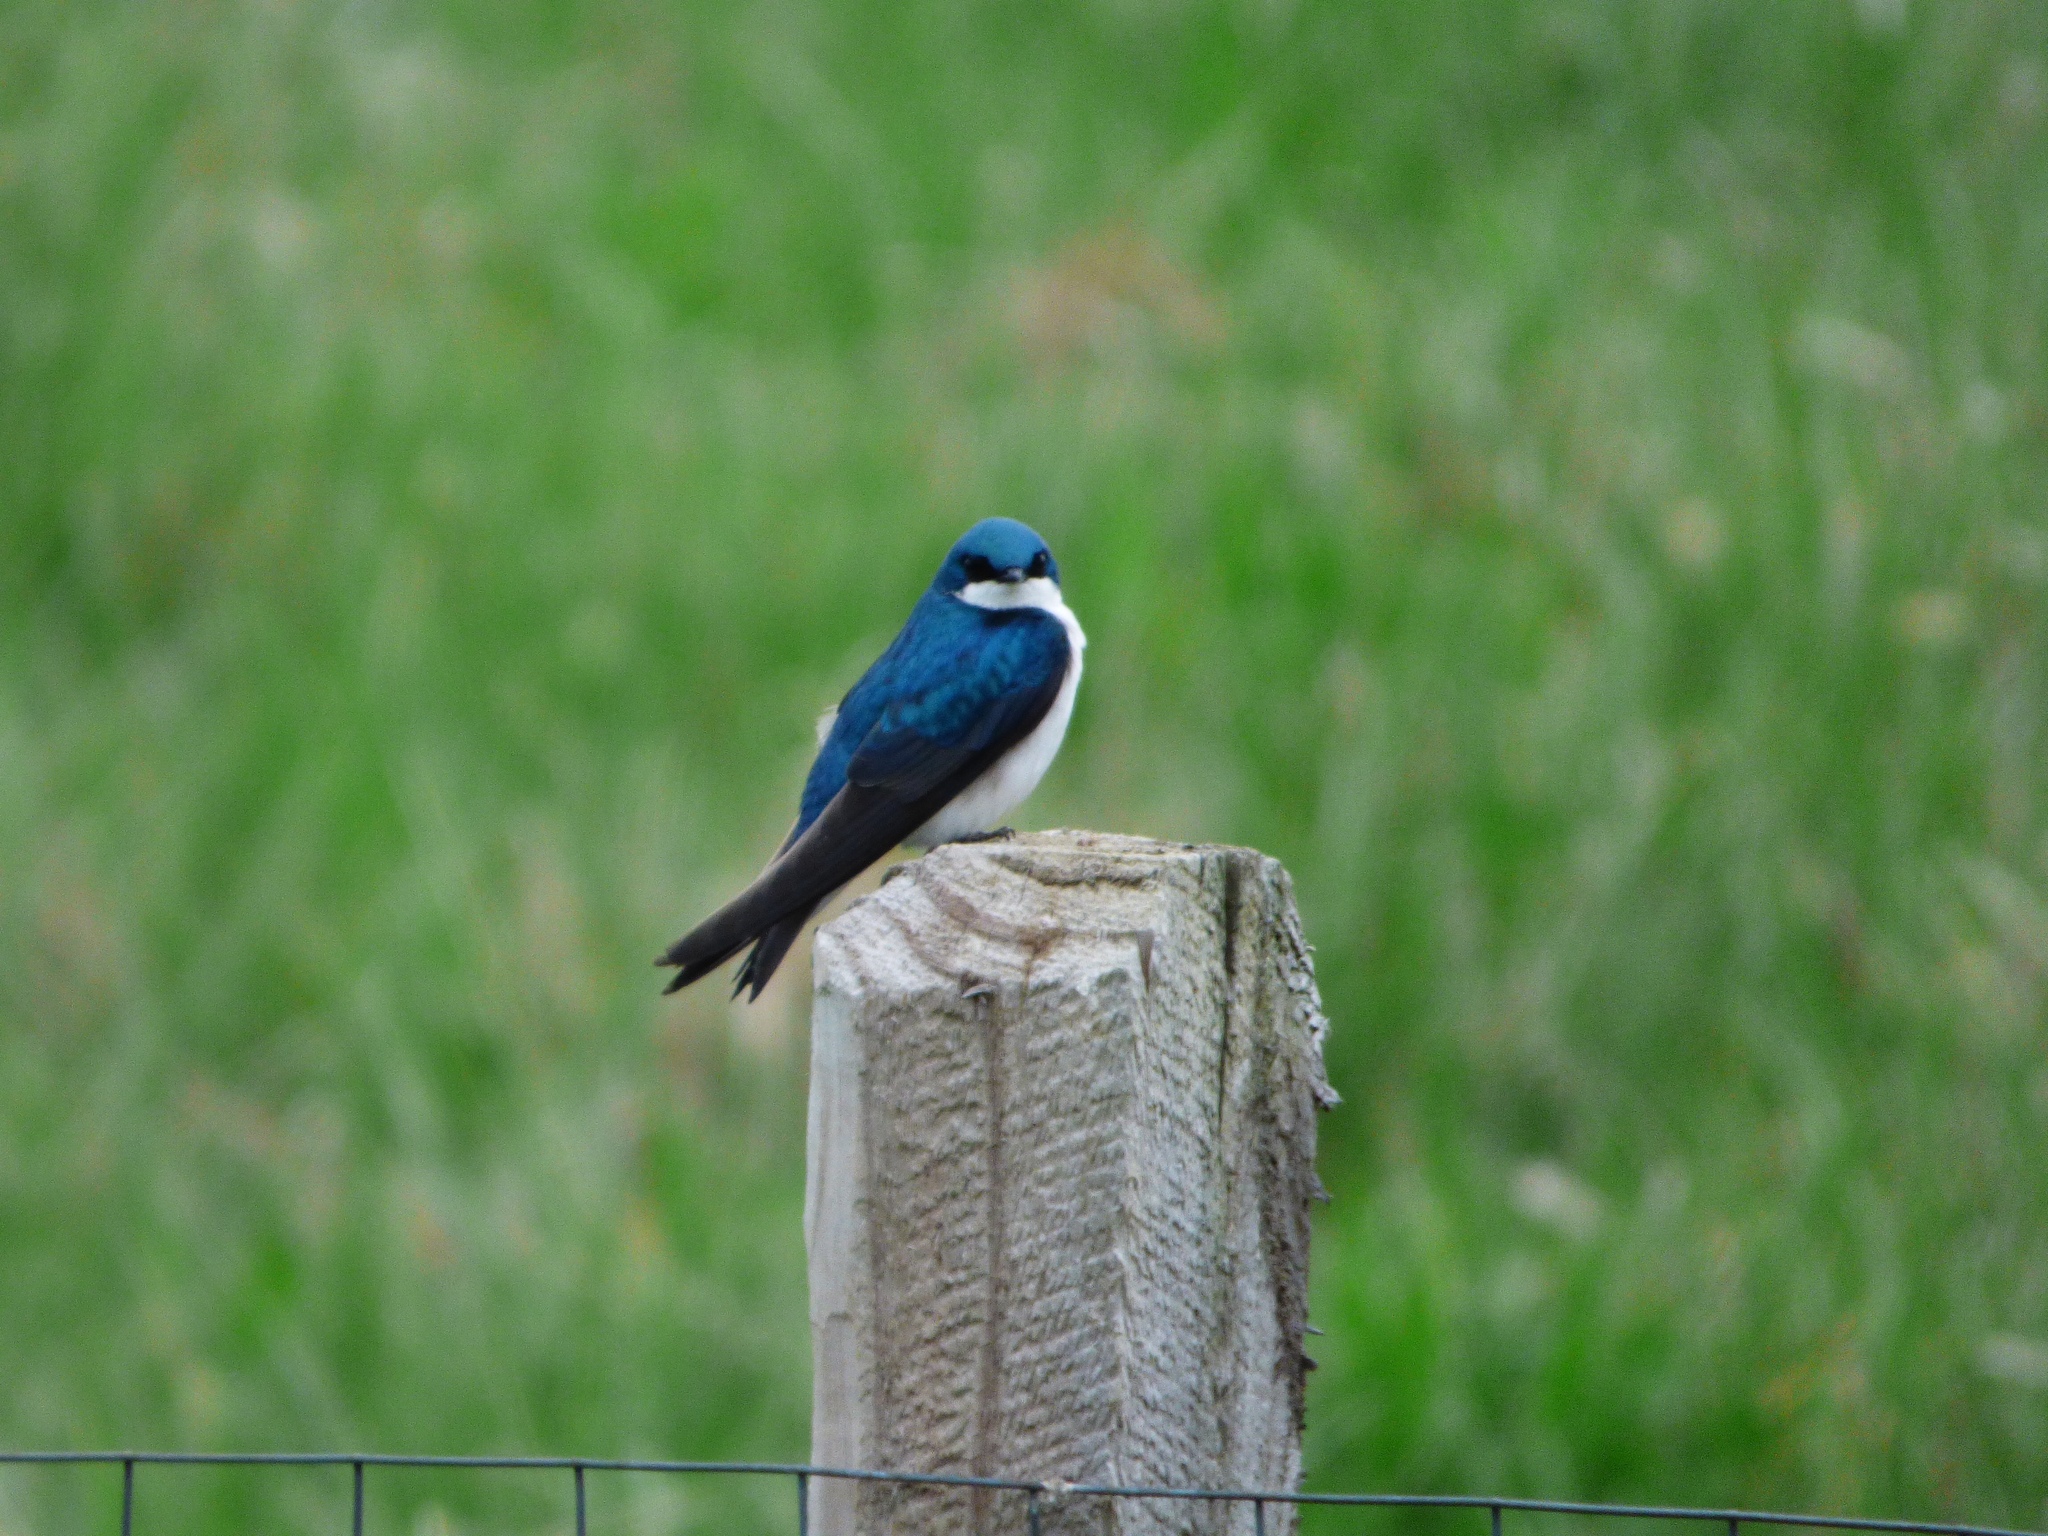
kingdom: Animalia
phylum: Chordata
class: Aves
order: Passeriformes
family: Hirundinidae
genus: Tachycineta
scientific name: Tachycineta bicolor
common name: Tree swallow
